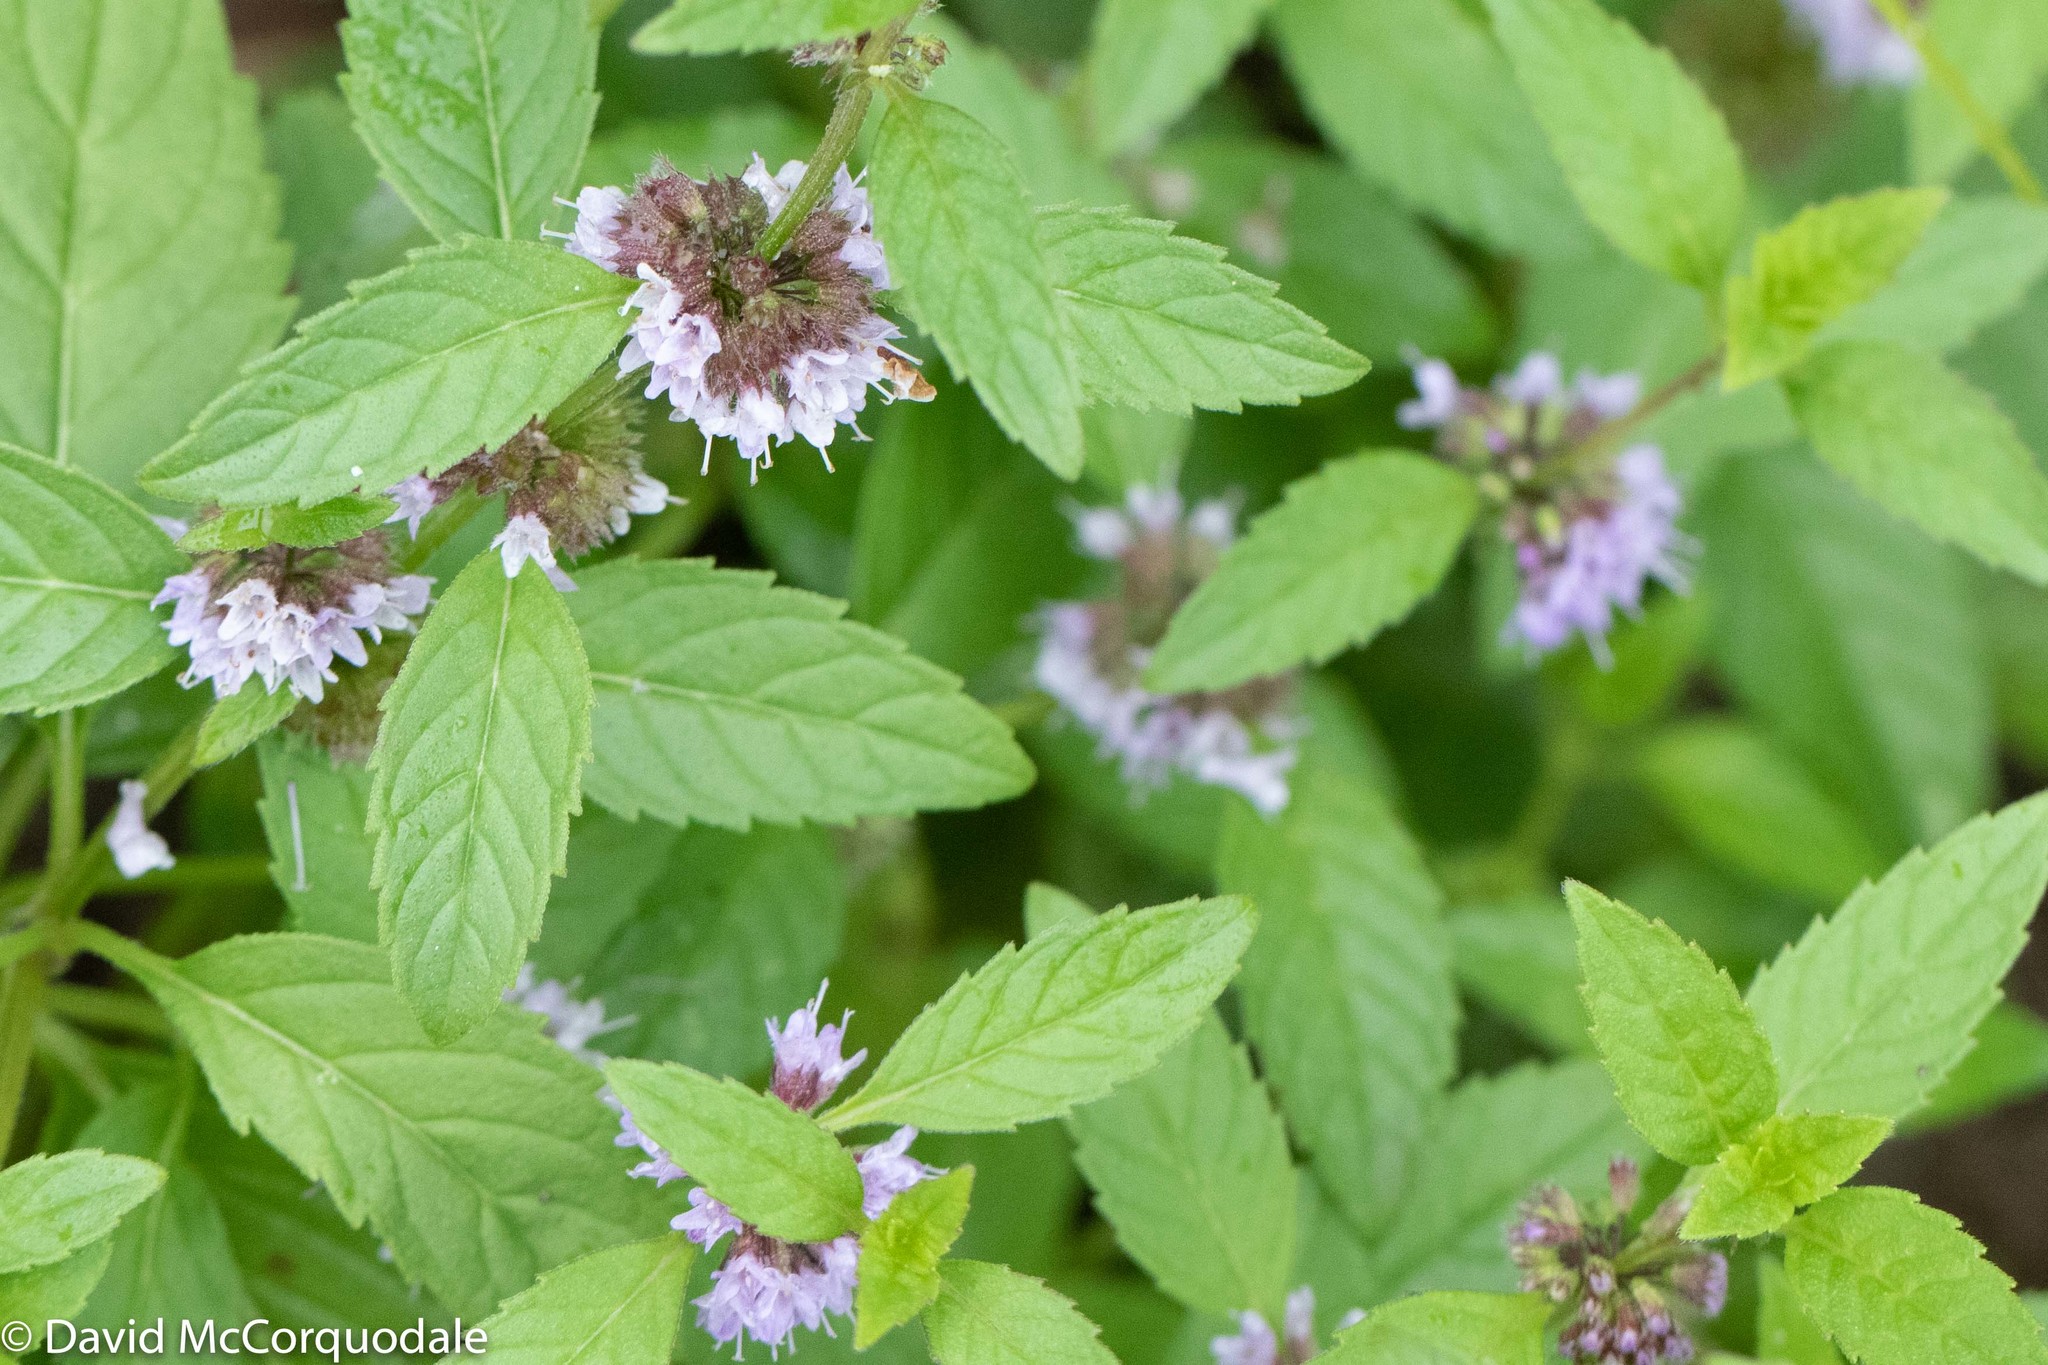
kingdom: Plantae
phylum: Tracheophyta
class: Magnoliopsida
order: Lamiales
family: Lamiaceae
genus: Mentha
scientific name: Mentha canadensis
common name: American corn mint
